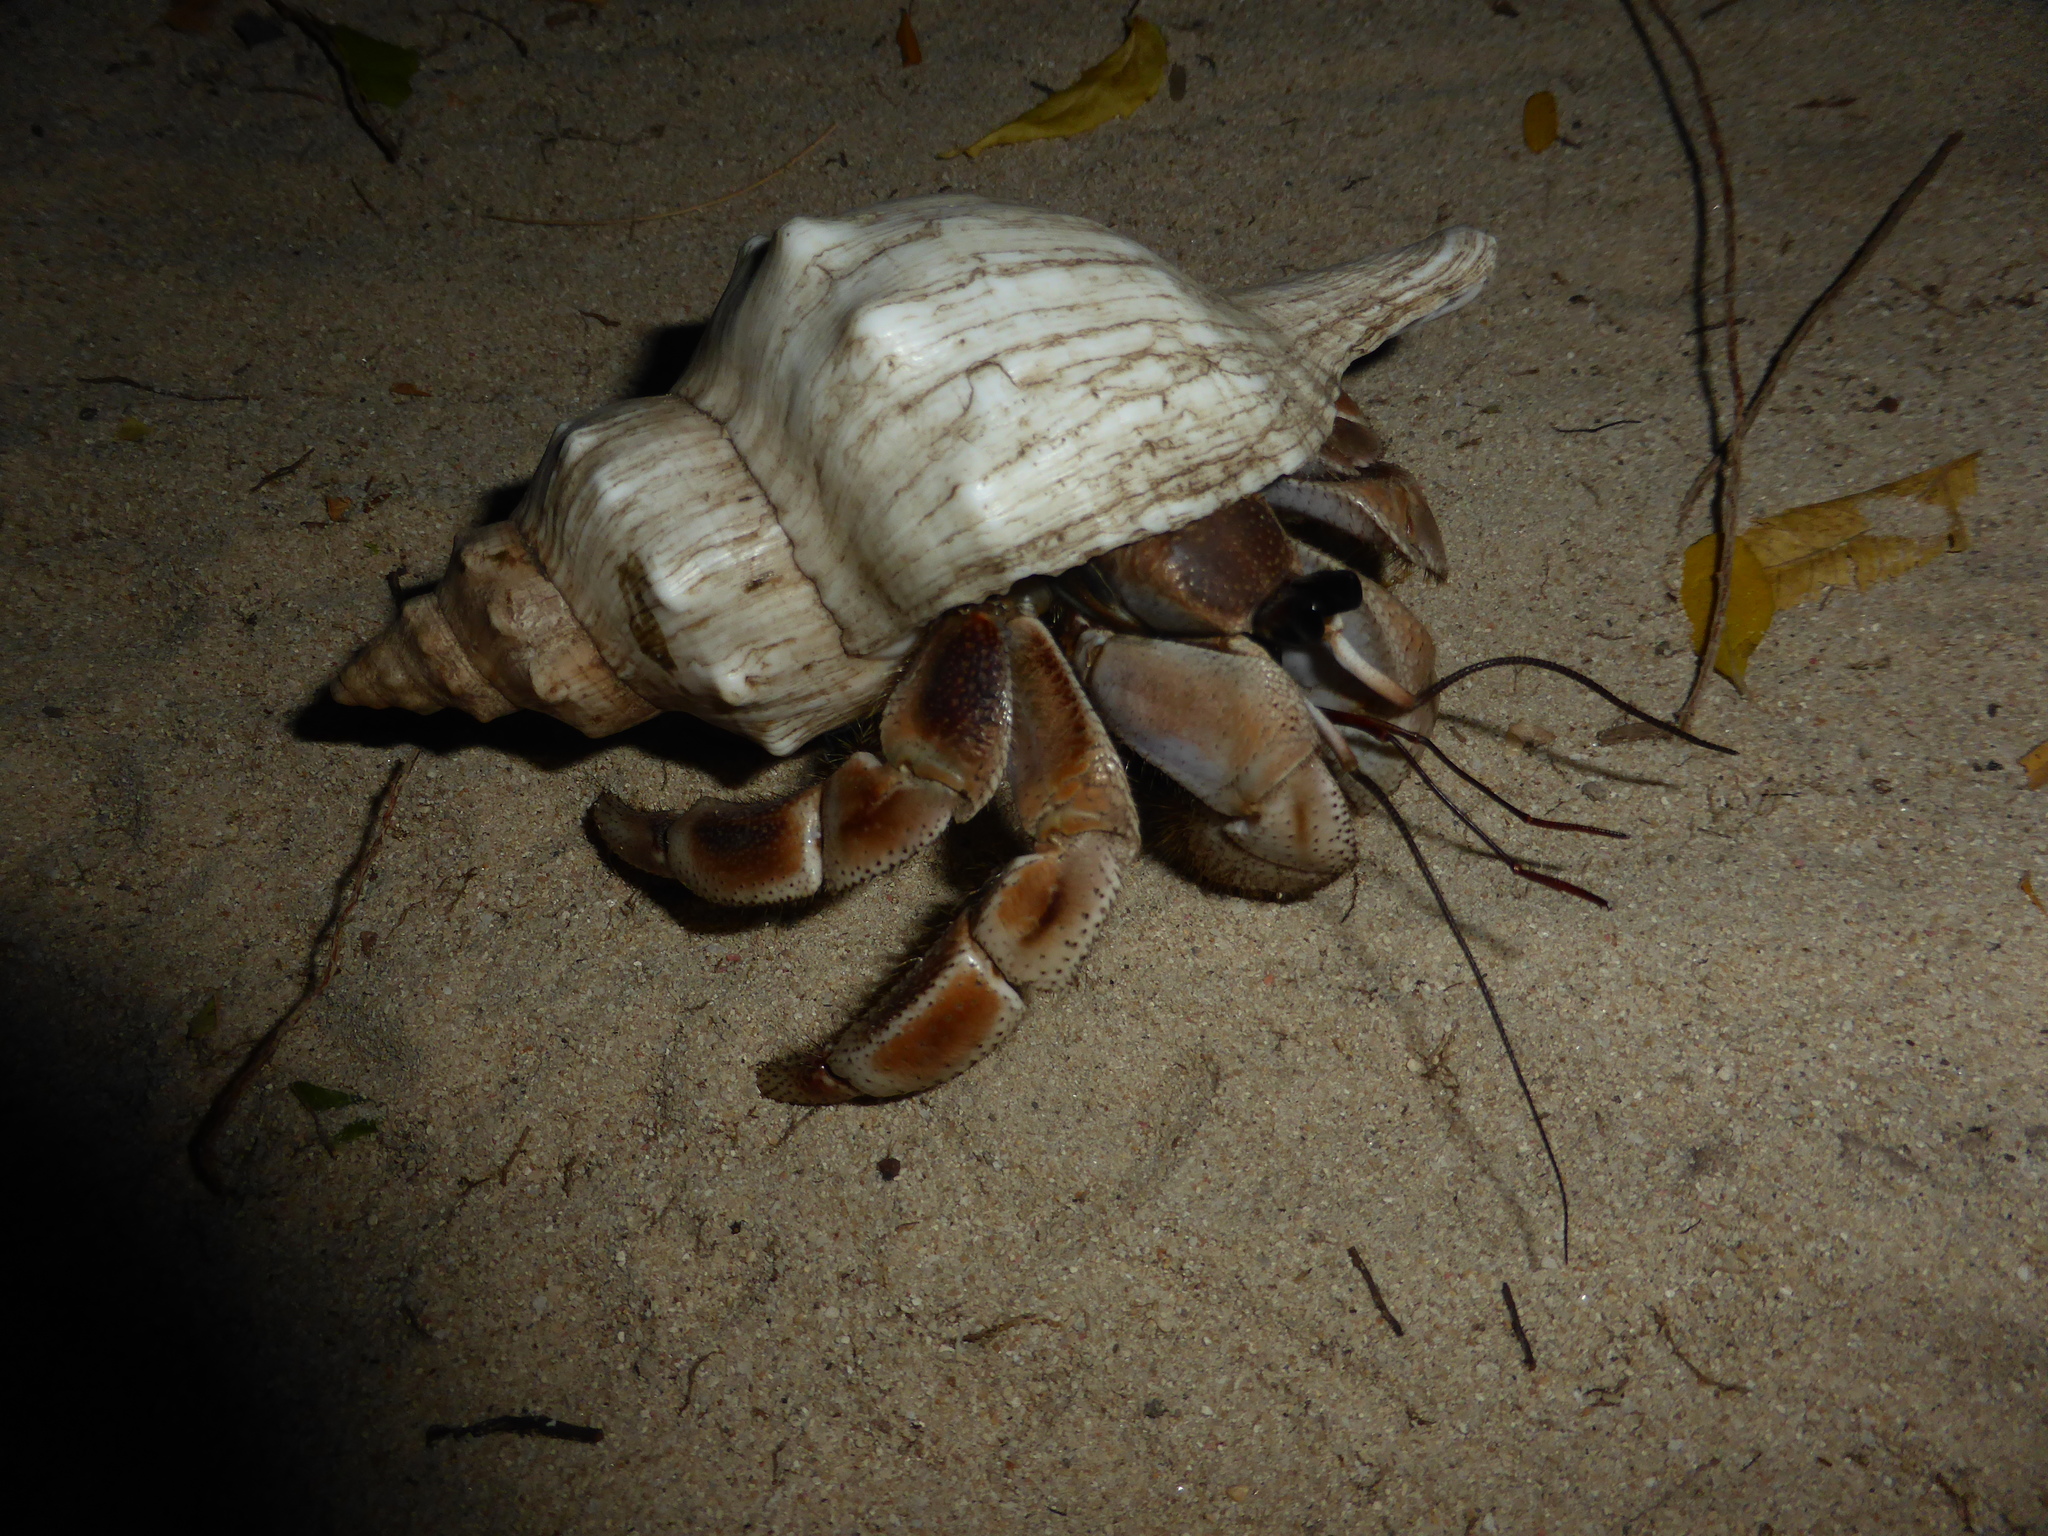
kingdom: Animalia
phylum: Arthropoda
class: Malacostraca
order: Decapoda
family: Coenobitidae
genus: Coenobita
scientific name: Coenobita violascens
